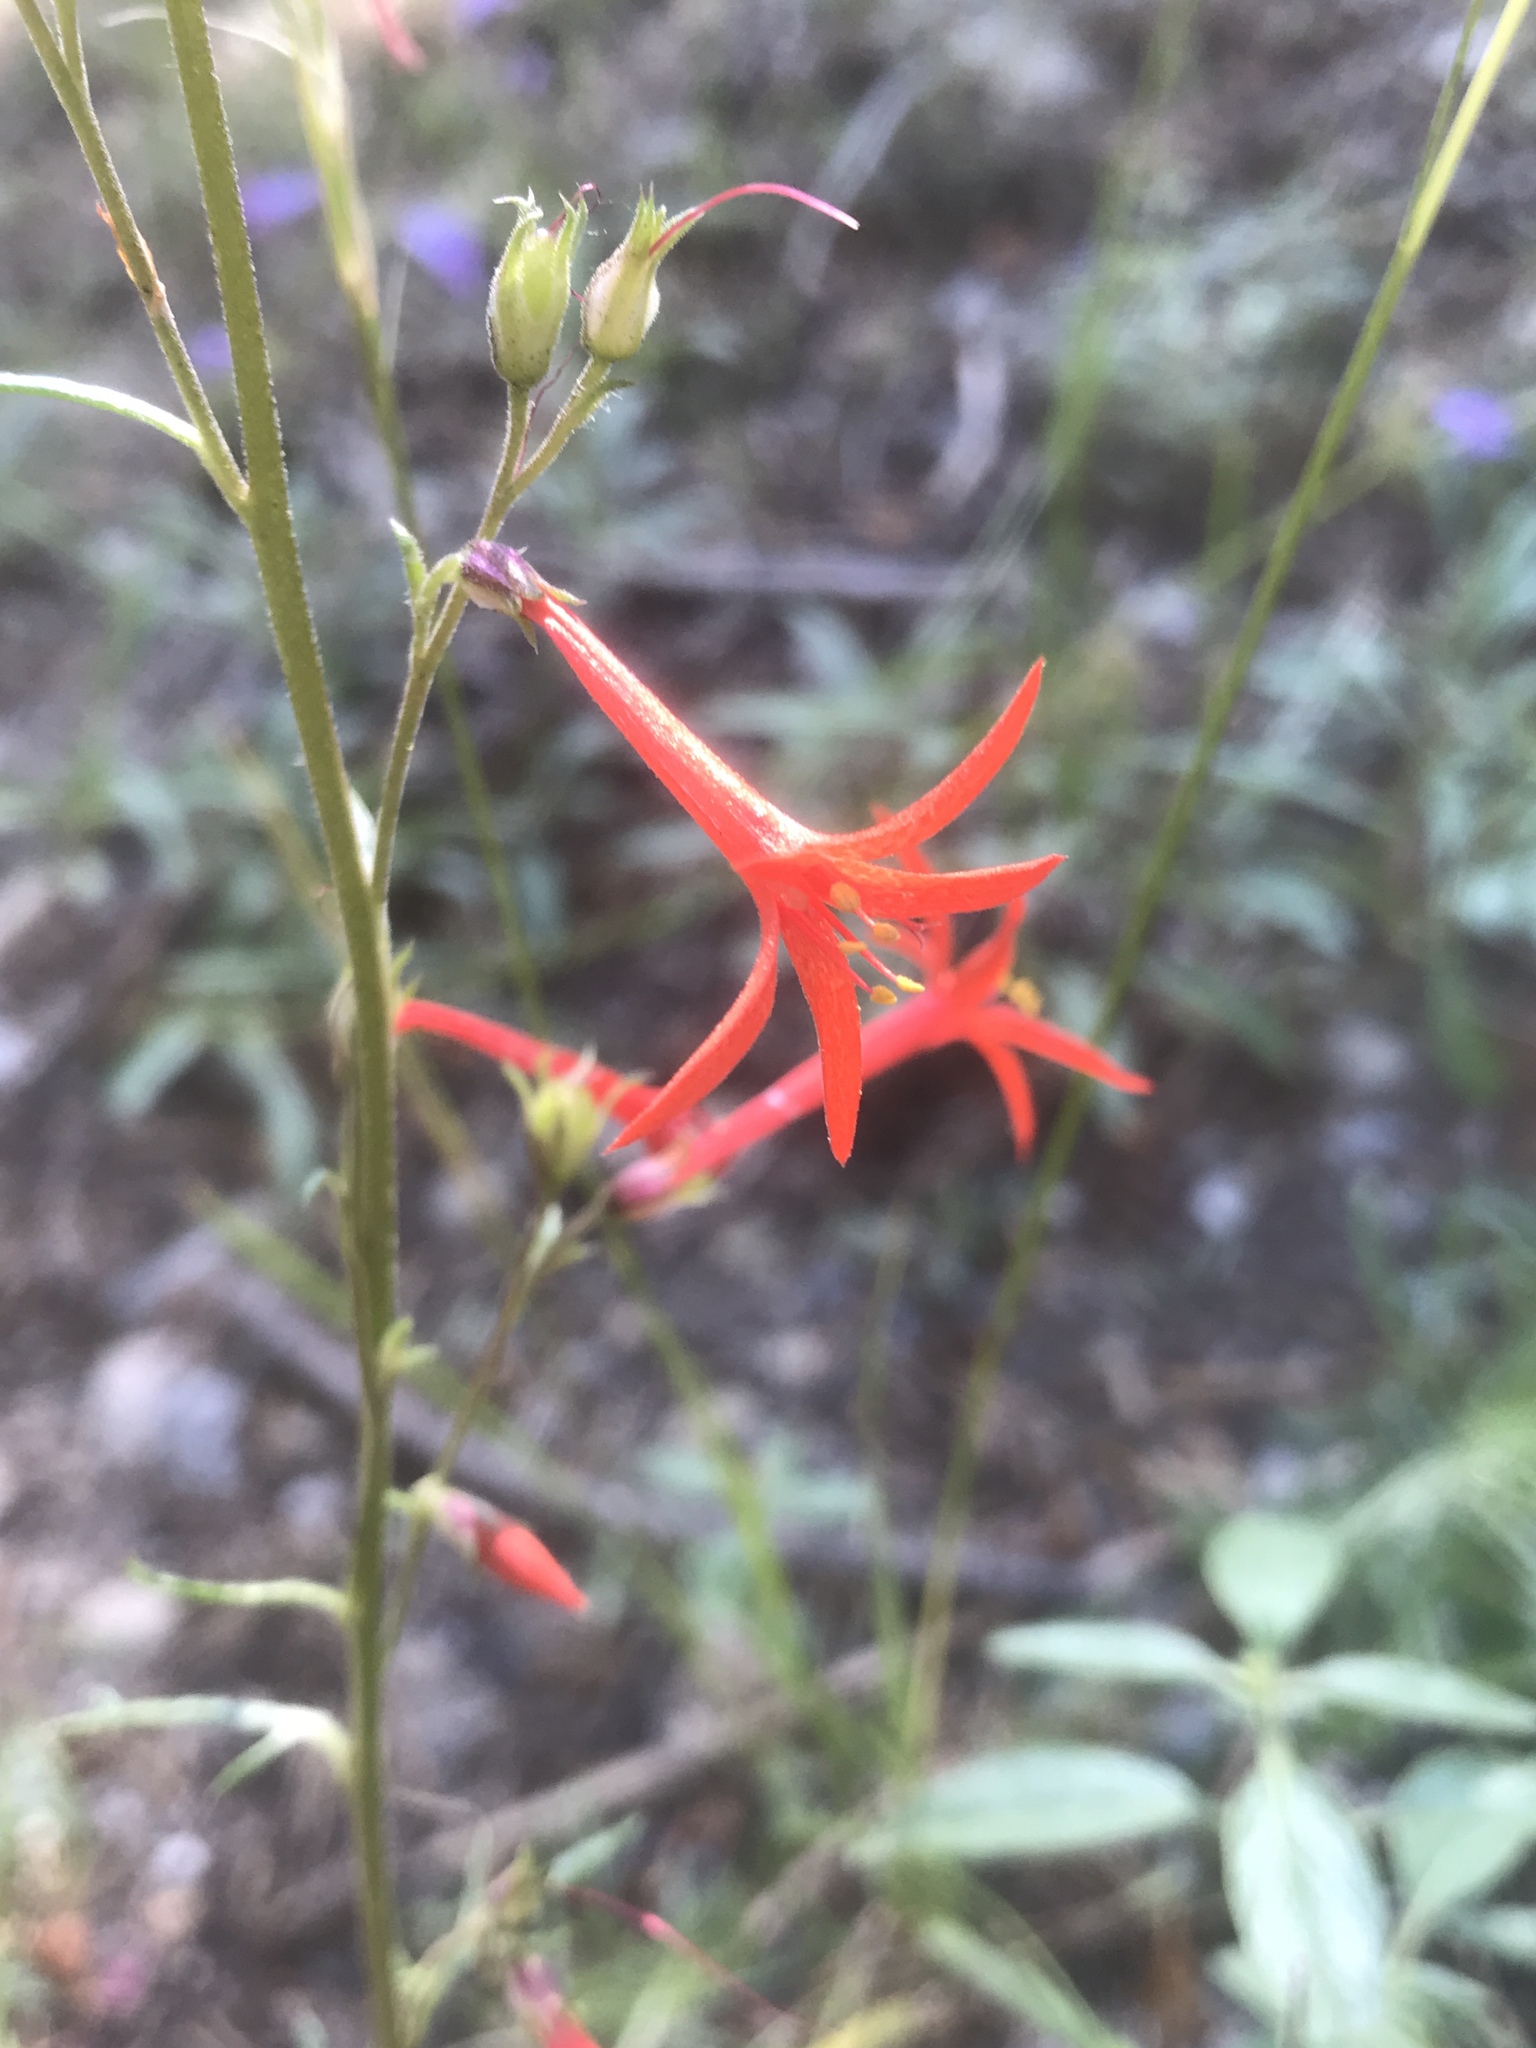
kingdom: Plantae
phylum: Tracheophyta
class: Magnoliopsida
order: Ericales
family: Polemoniaceae
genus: Ipomopsis
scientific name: Ipomopsis aggregata
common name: Scarlet gilia
